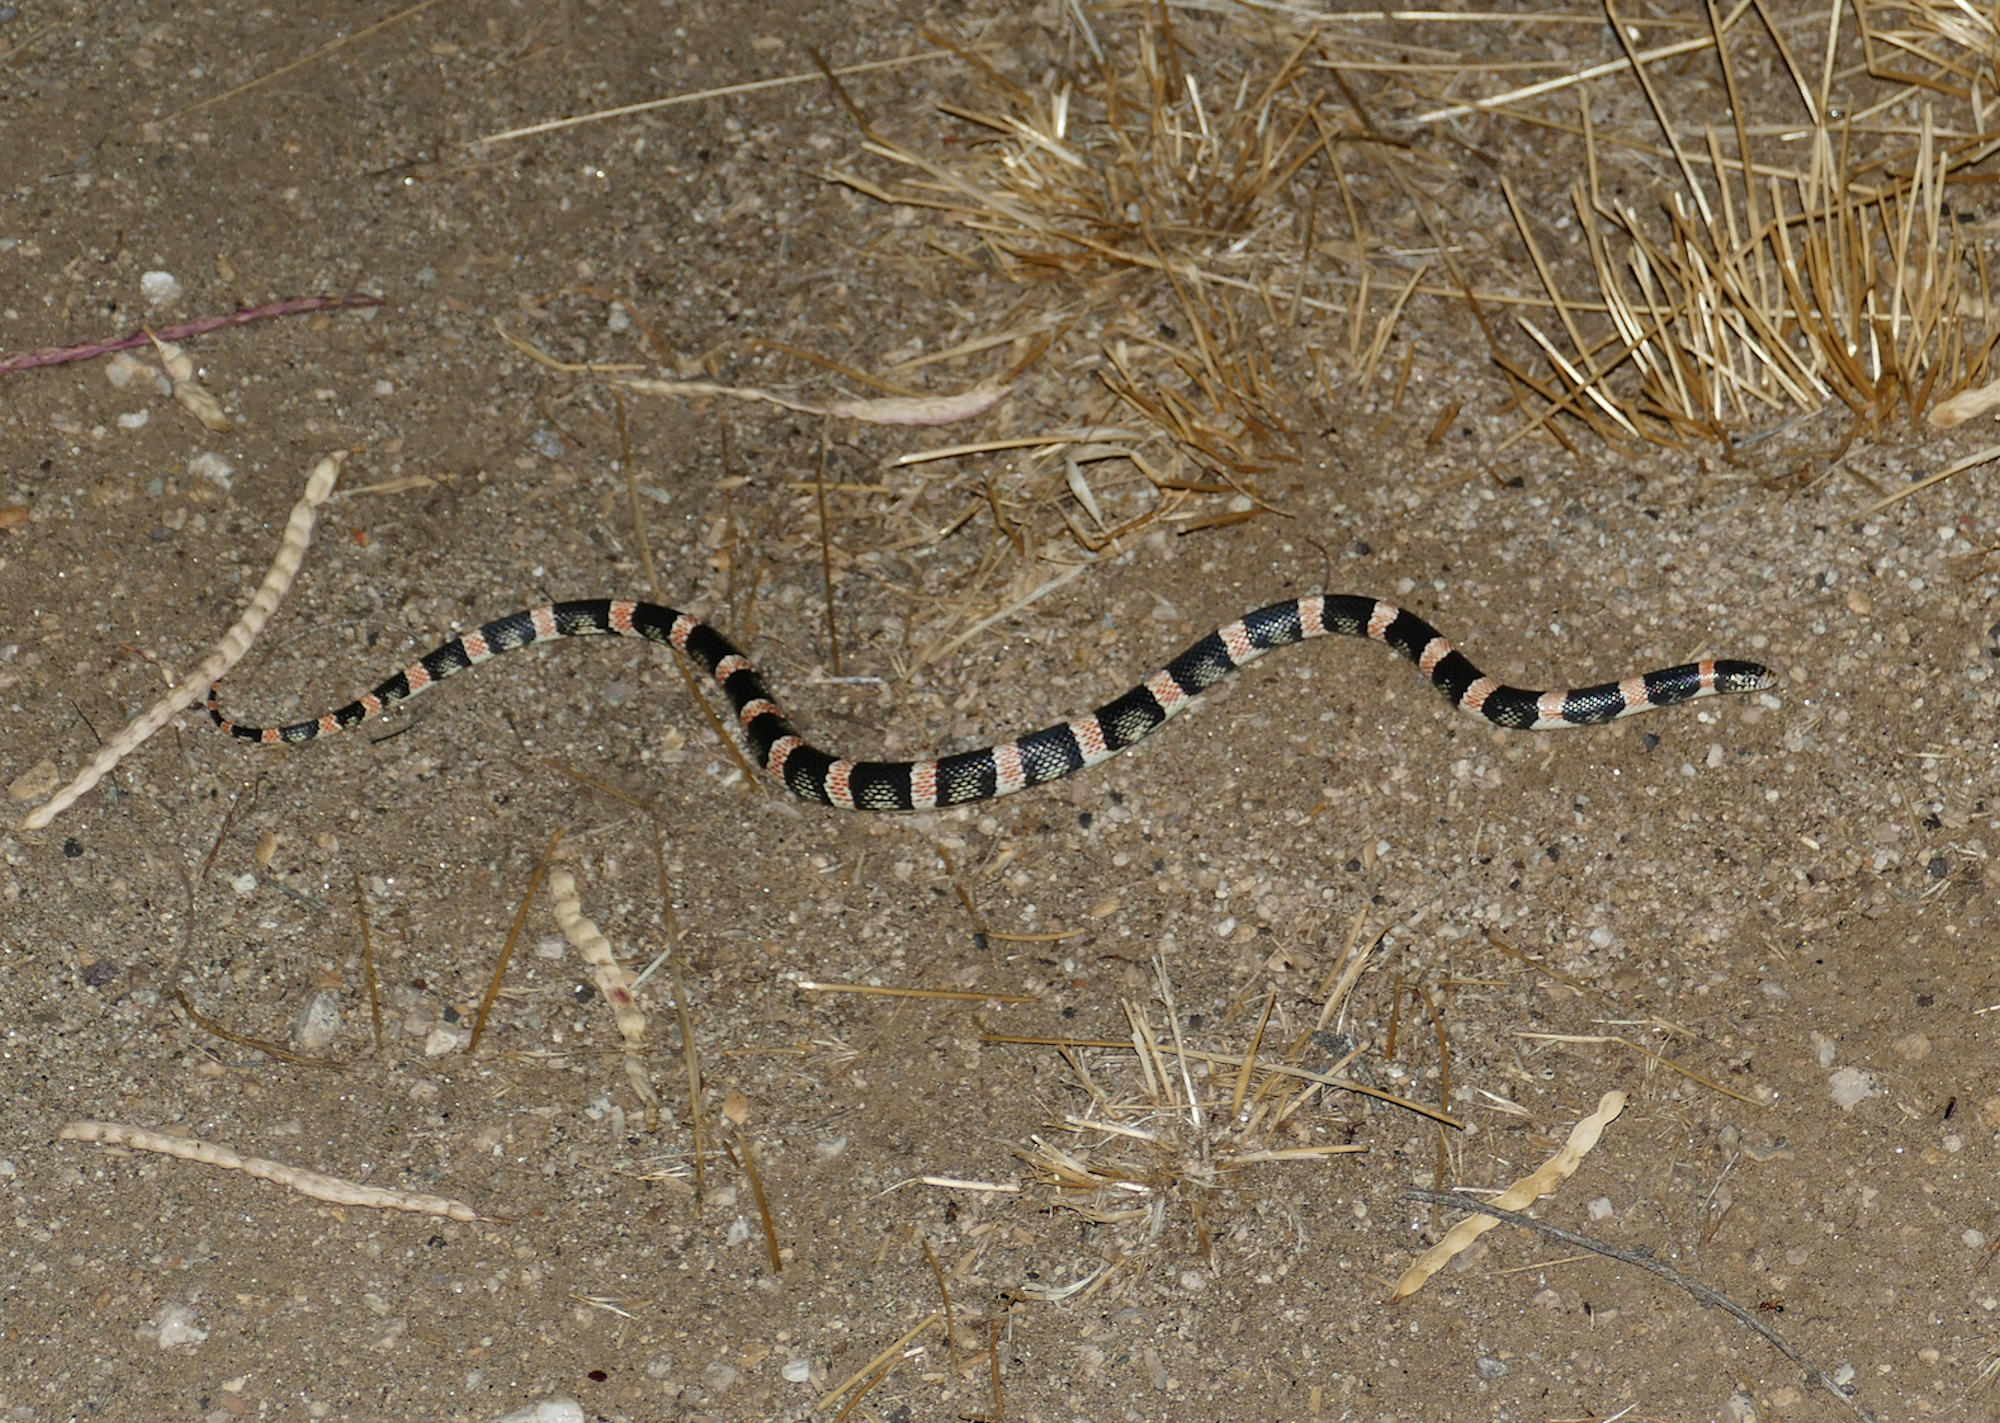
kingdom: Animalia
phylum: Chordata
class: Squamata
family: Colubridae
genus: Rhinocheilus
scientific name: Rhinocheilus lecontei
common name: Longnose snake
